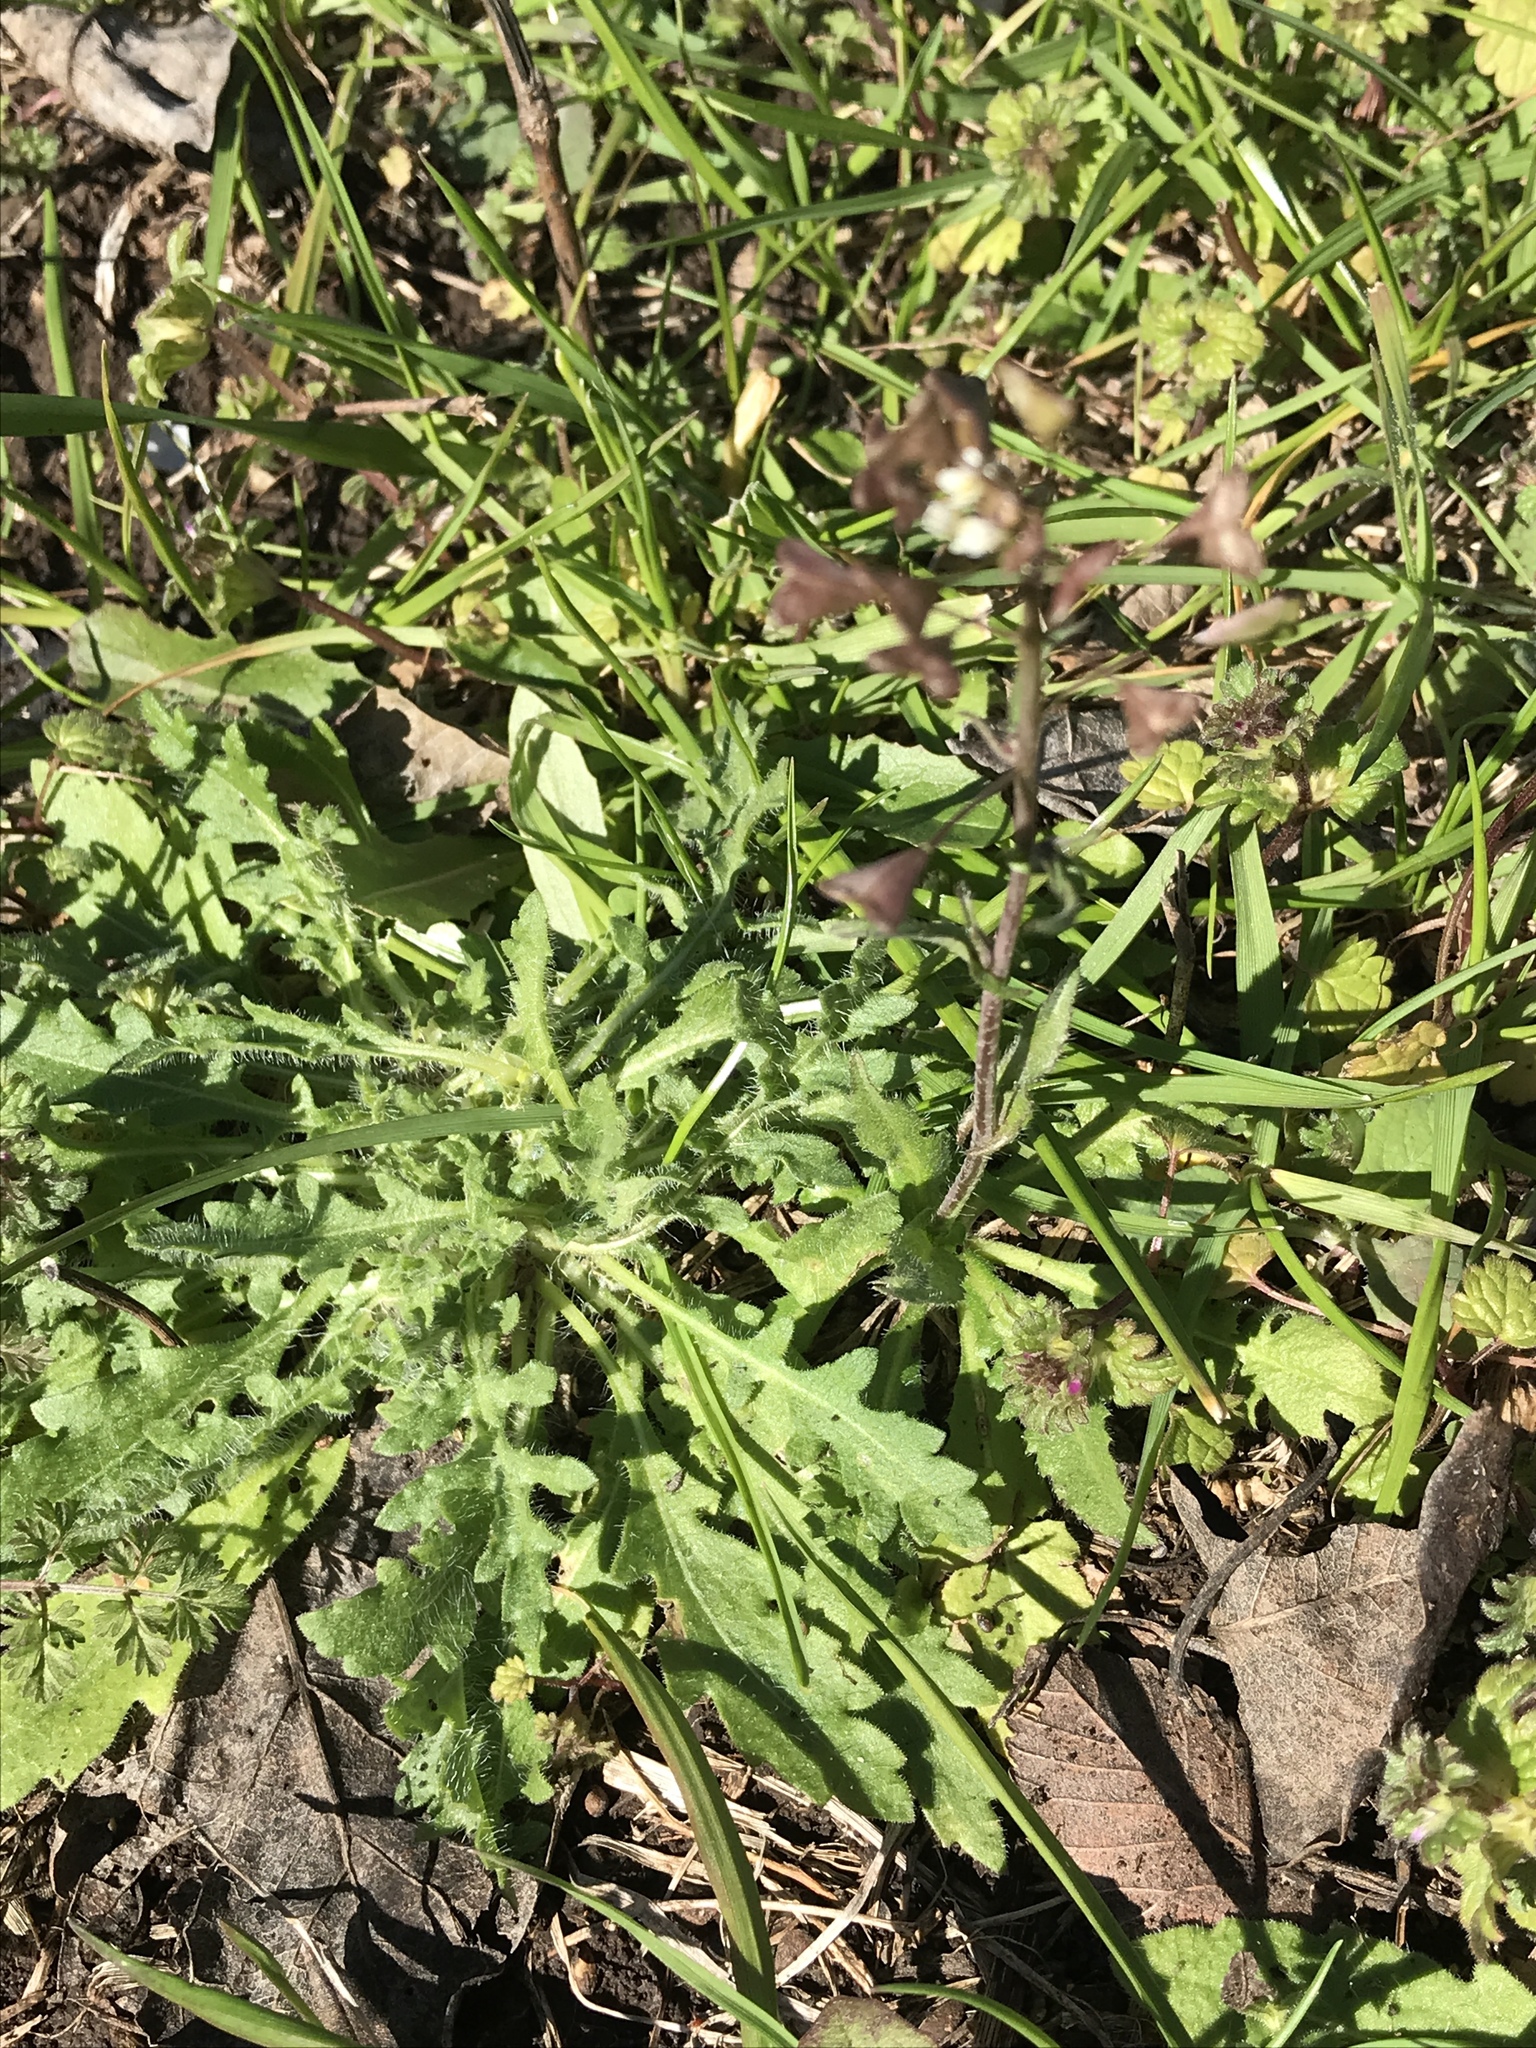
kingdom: Plantae
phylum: Tracheophyta
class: Magnoliopsida
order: Brassicales
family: Brassicaceae
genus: Capsella
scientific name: Capsella bursa-pastoris
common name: Shepherd's purse
